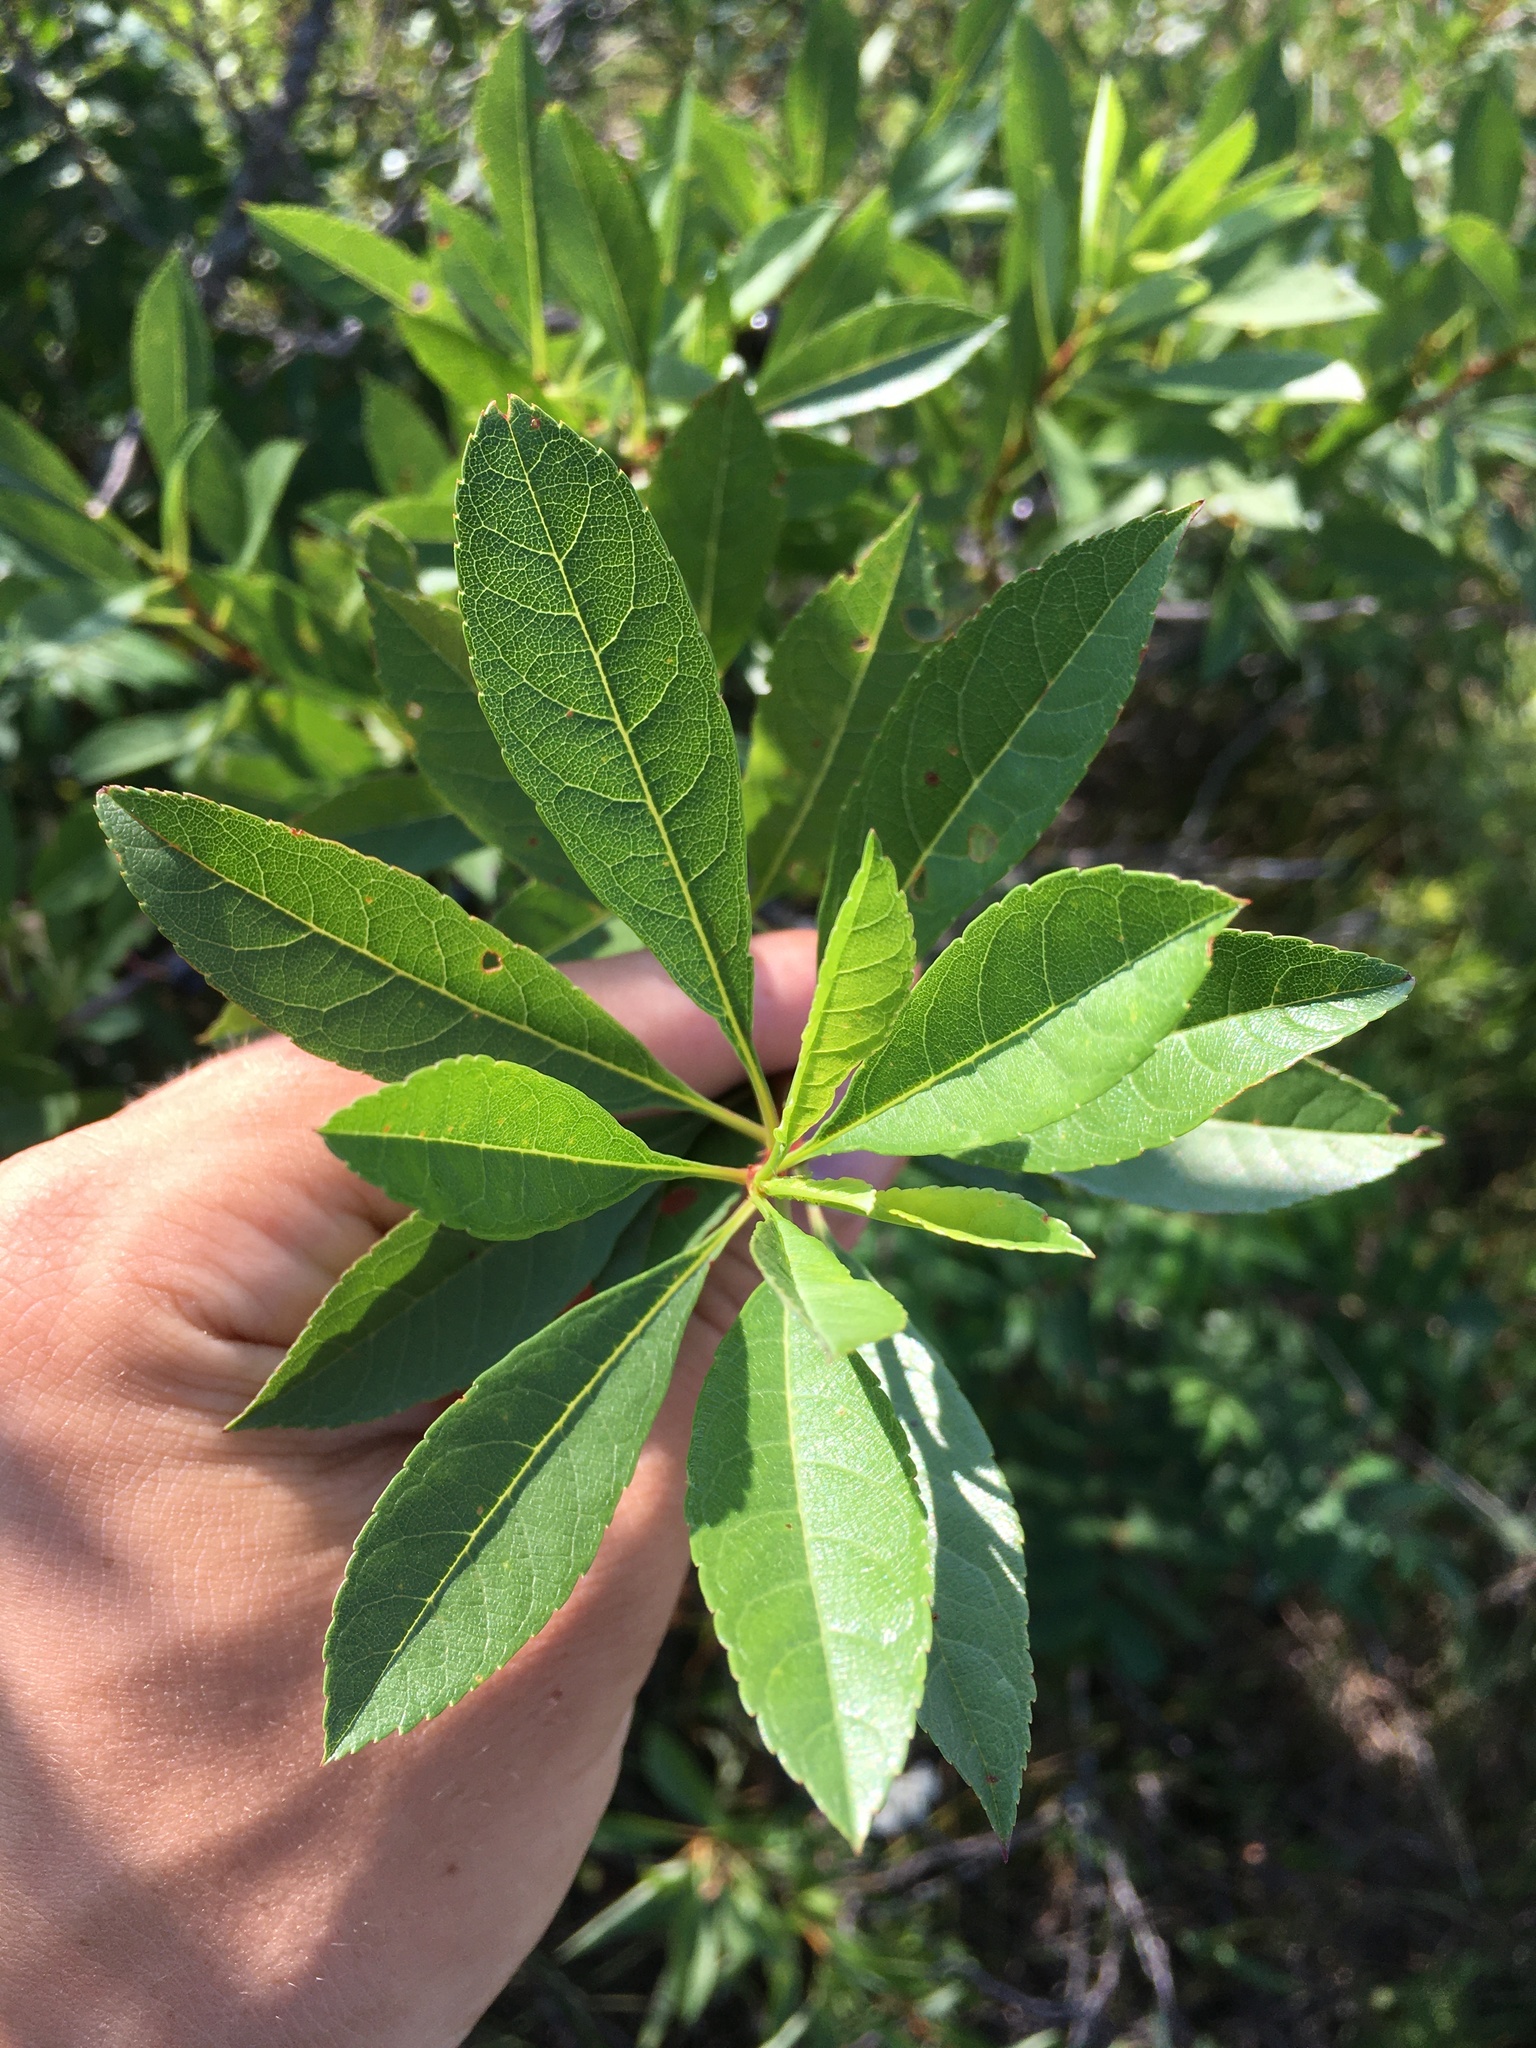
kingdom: Plantae
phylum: Tracheophyta
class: Magnoliopsida
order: Rosales
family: Rosaceae
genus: Prunus
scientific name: Prunus pumila
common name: Dwarf cherry
